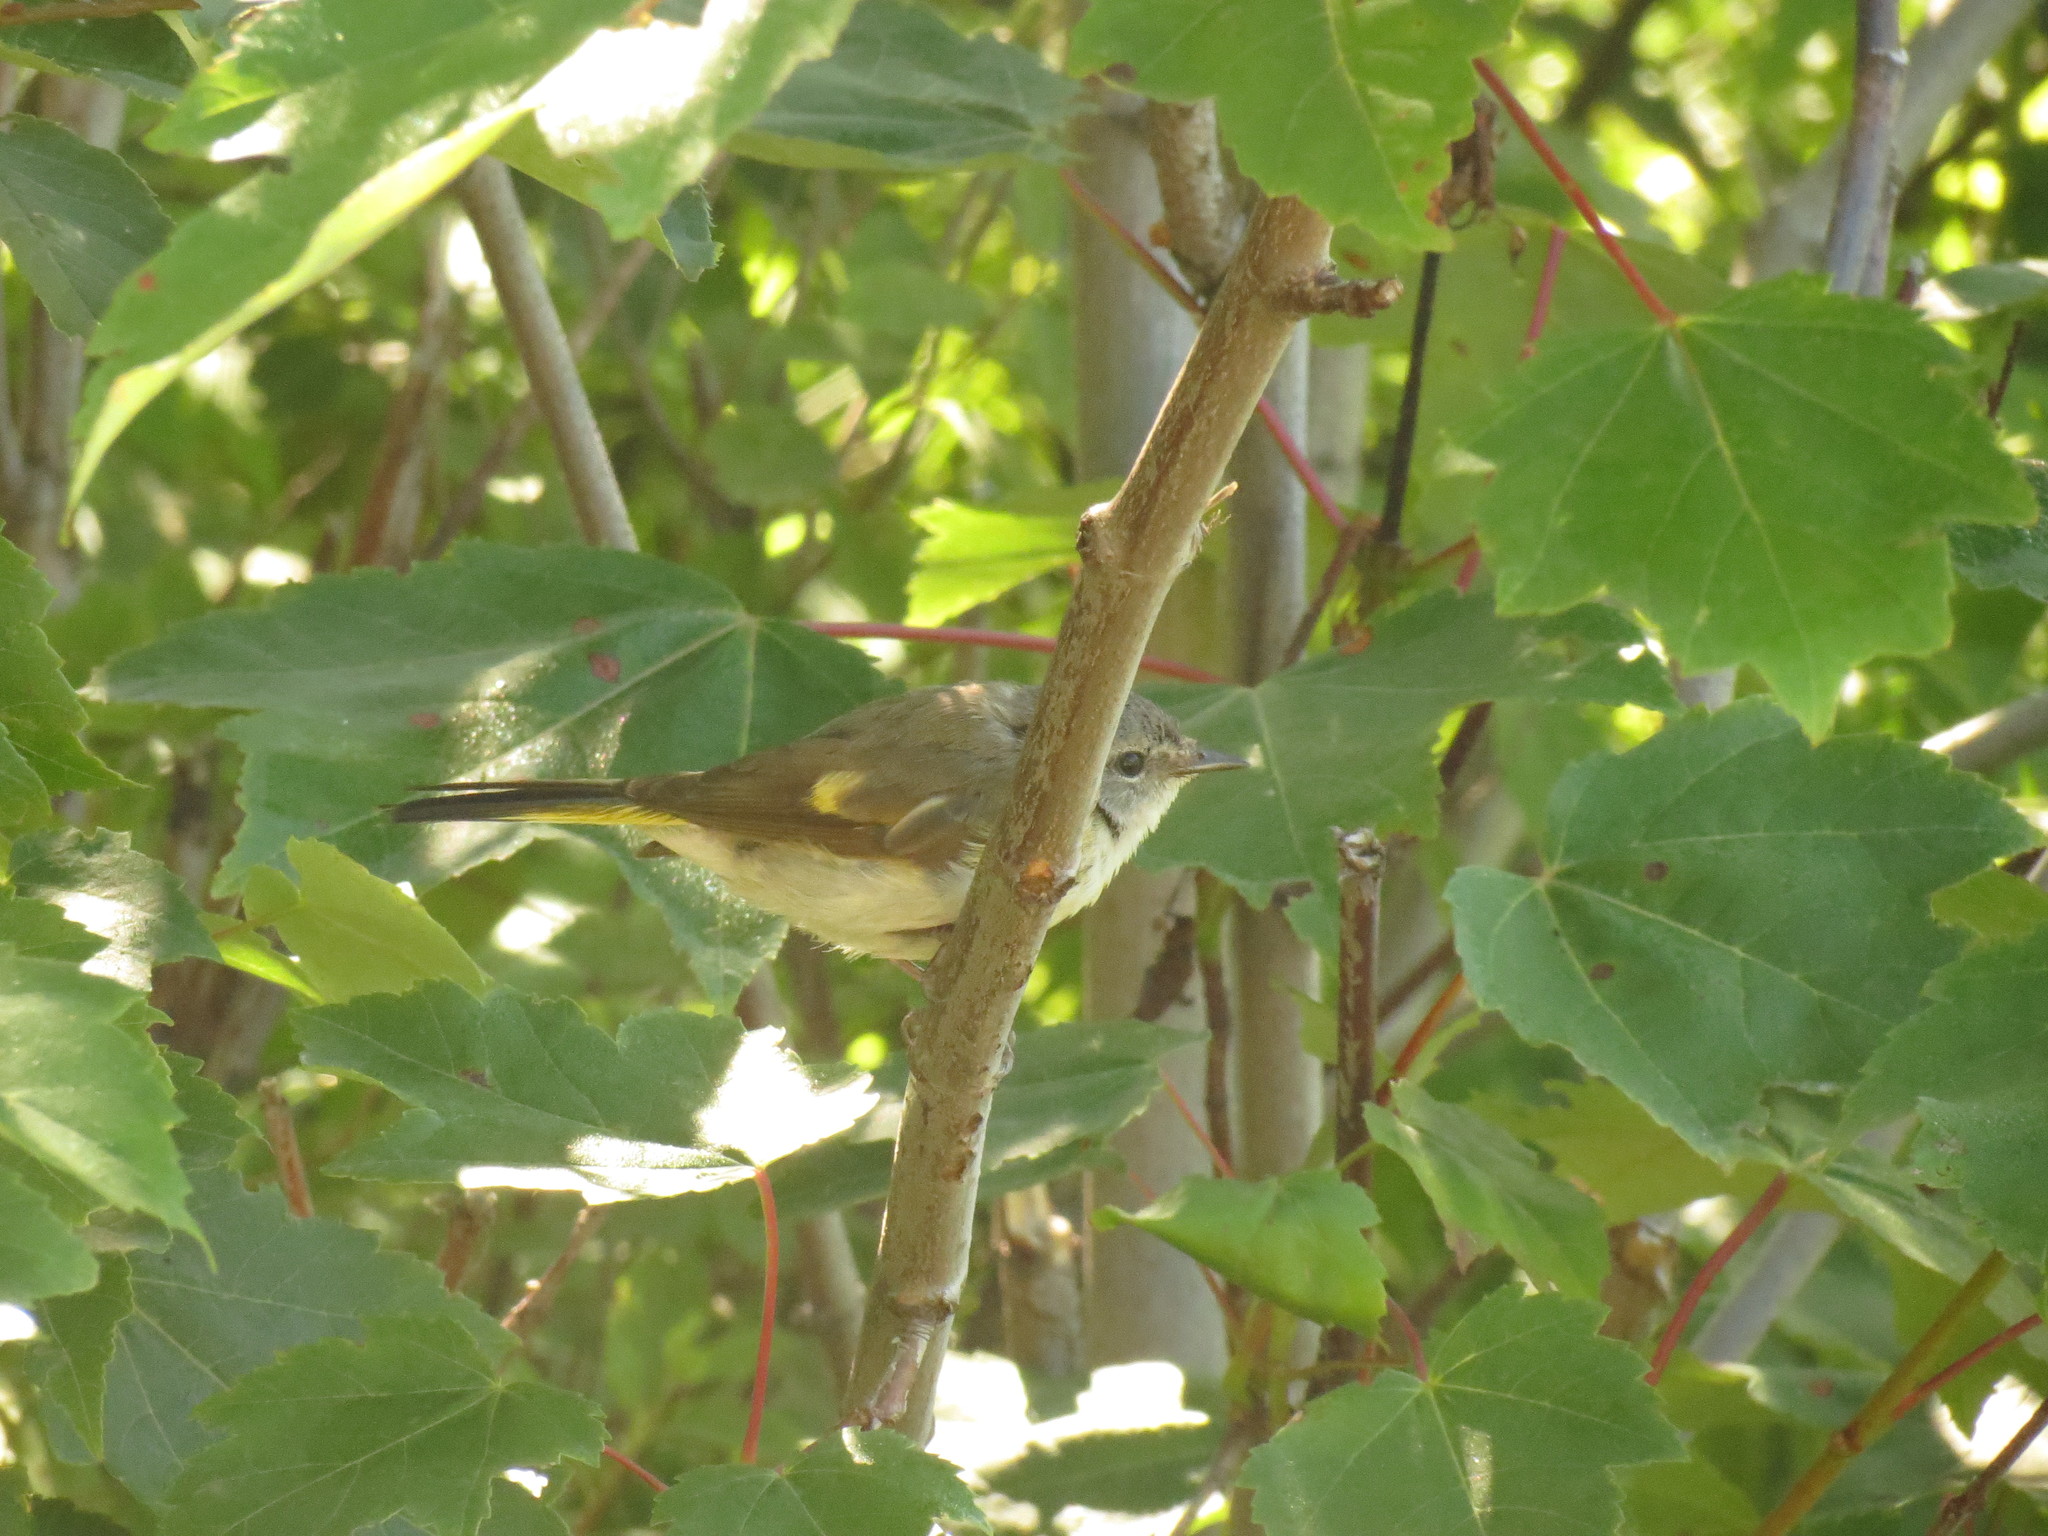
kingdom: Animalia
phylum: Chordata
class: Aves
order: Passeriformes
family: Parulidae
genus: Setophaga
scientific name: Setophaga ruticilla
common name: American redstart
